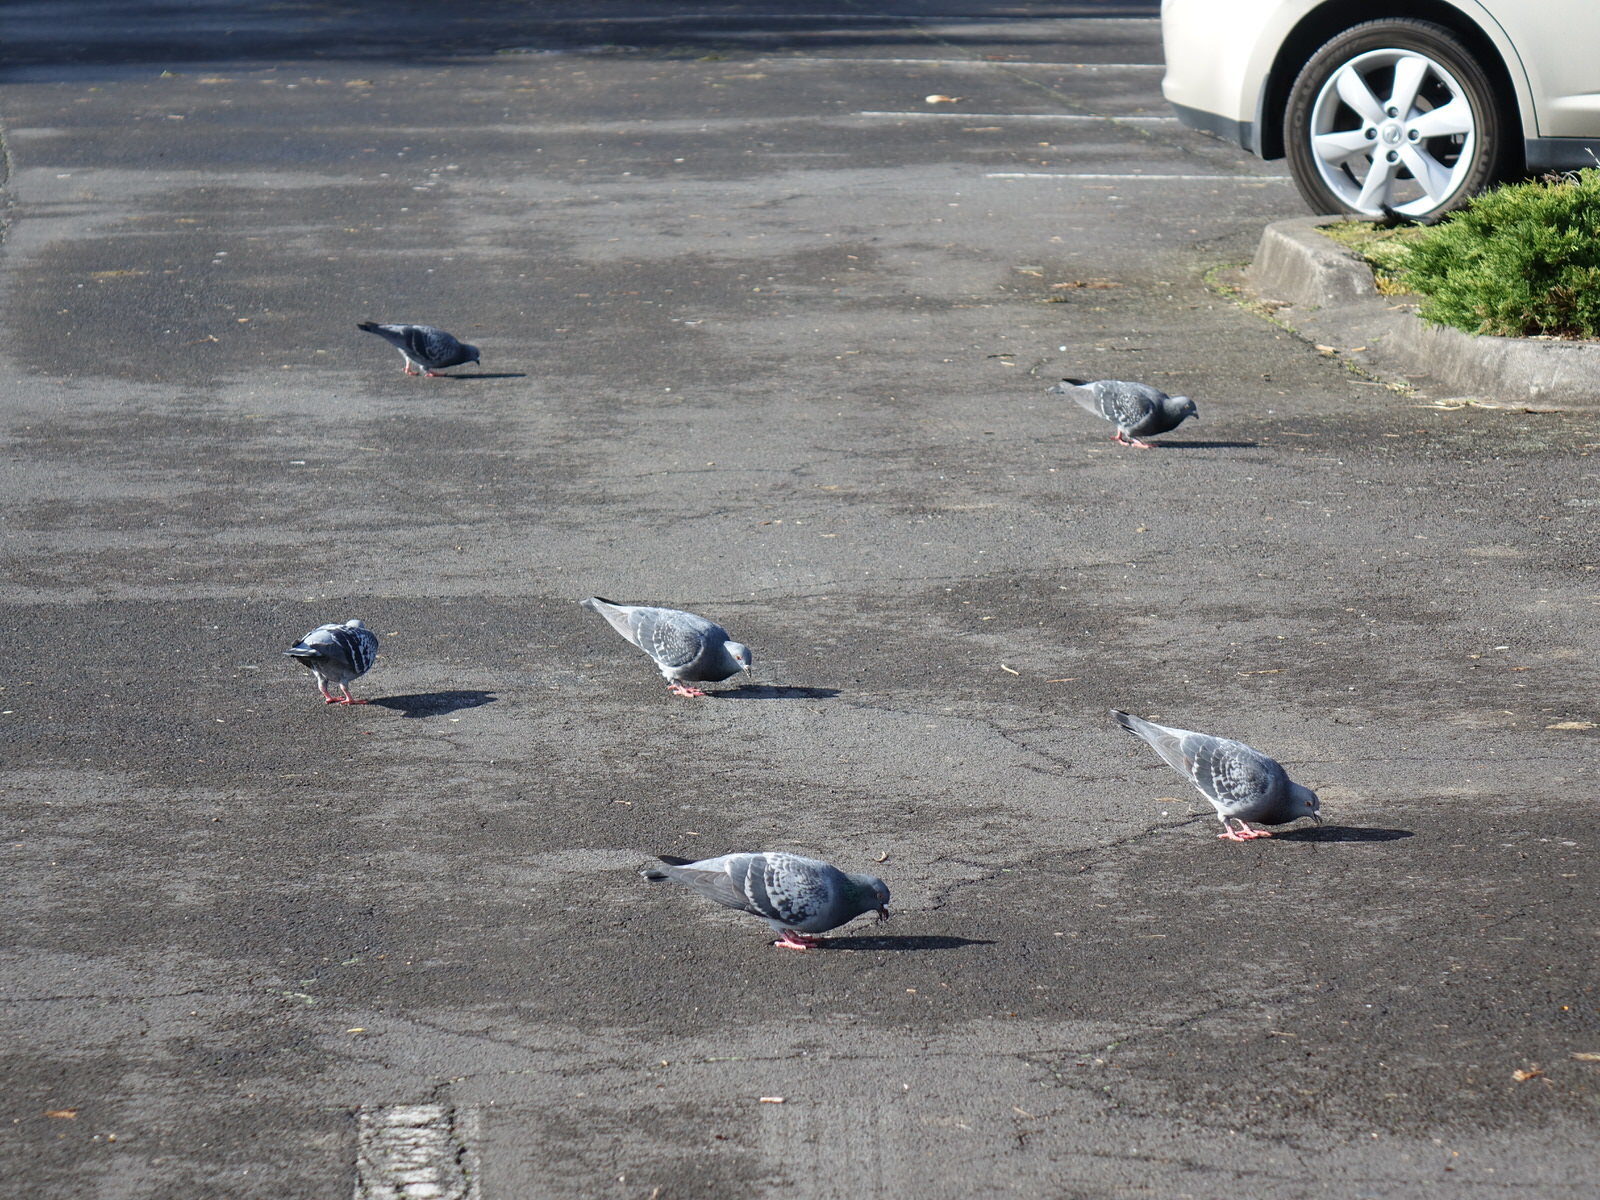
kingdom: Animalia
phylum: Chordata
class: Aves
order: Columbiformes
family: Columbidae
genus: Columba
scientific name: Columba livia
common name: Rock pigeon
